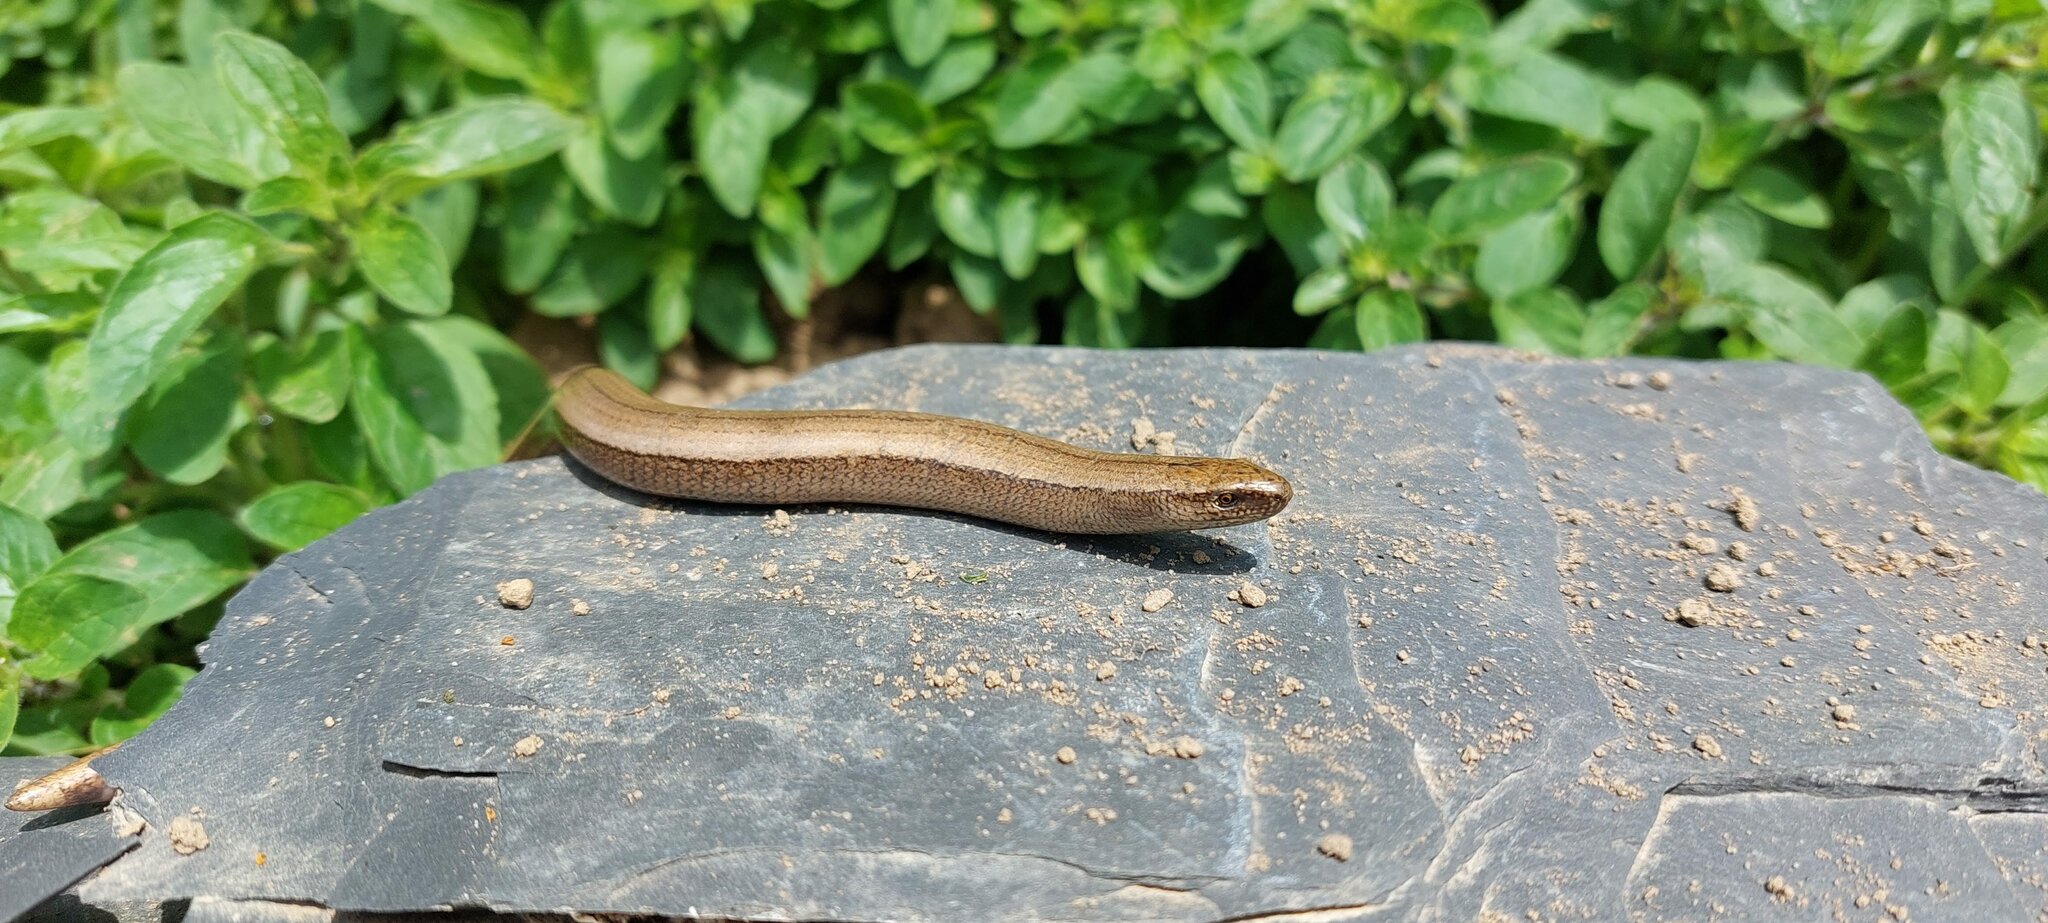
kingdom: Animalia
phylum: Chordata
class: Squamata
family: Anguidae
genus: Anguis
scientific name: Anguis fragilis
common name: Slow worm
